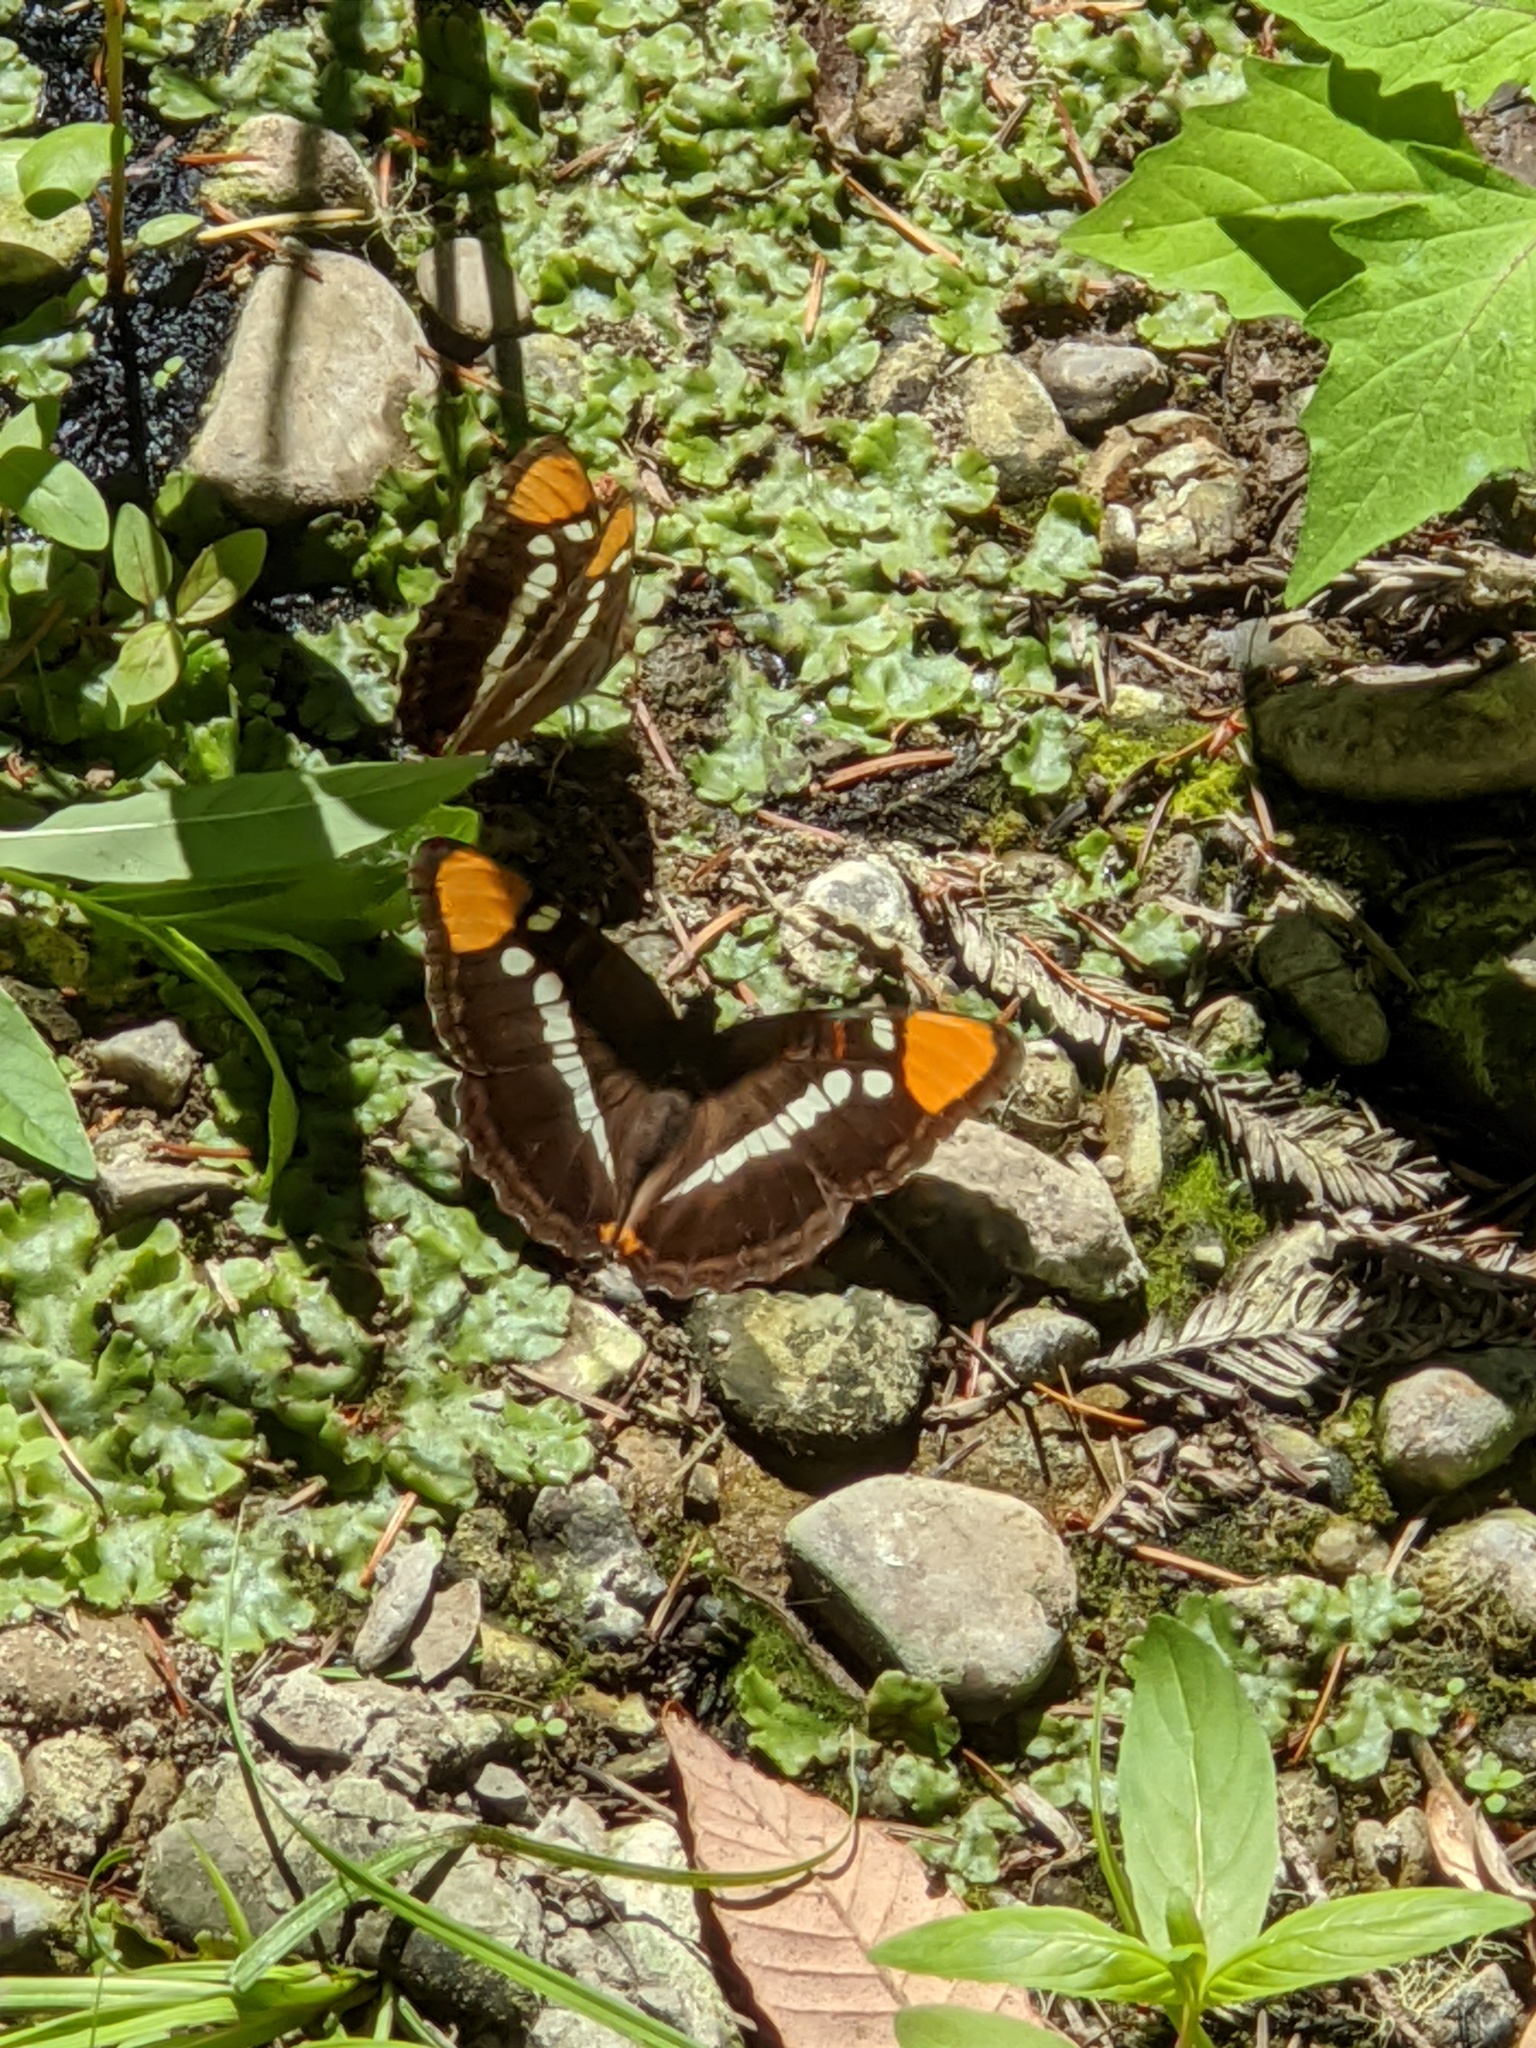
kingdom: Animalia
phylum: Arthropoda
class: Insecta
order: Lepidoptera
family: Nymphalidae
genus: Limenitis
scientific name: Limenitis bredowii
